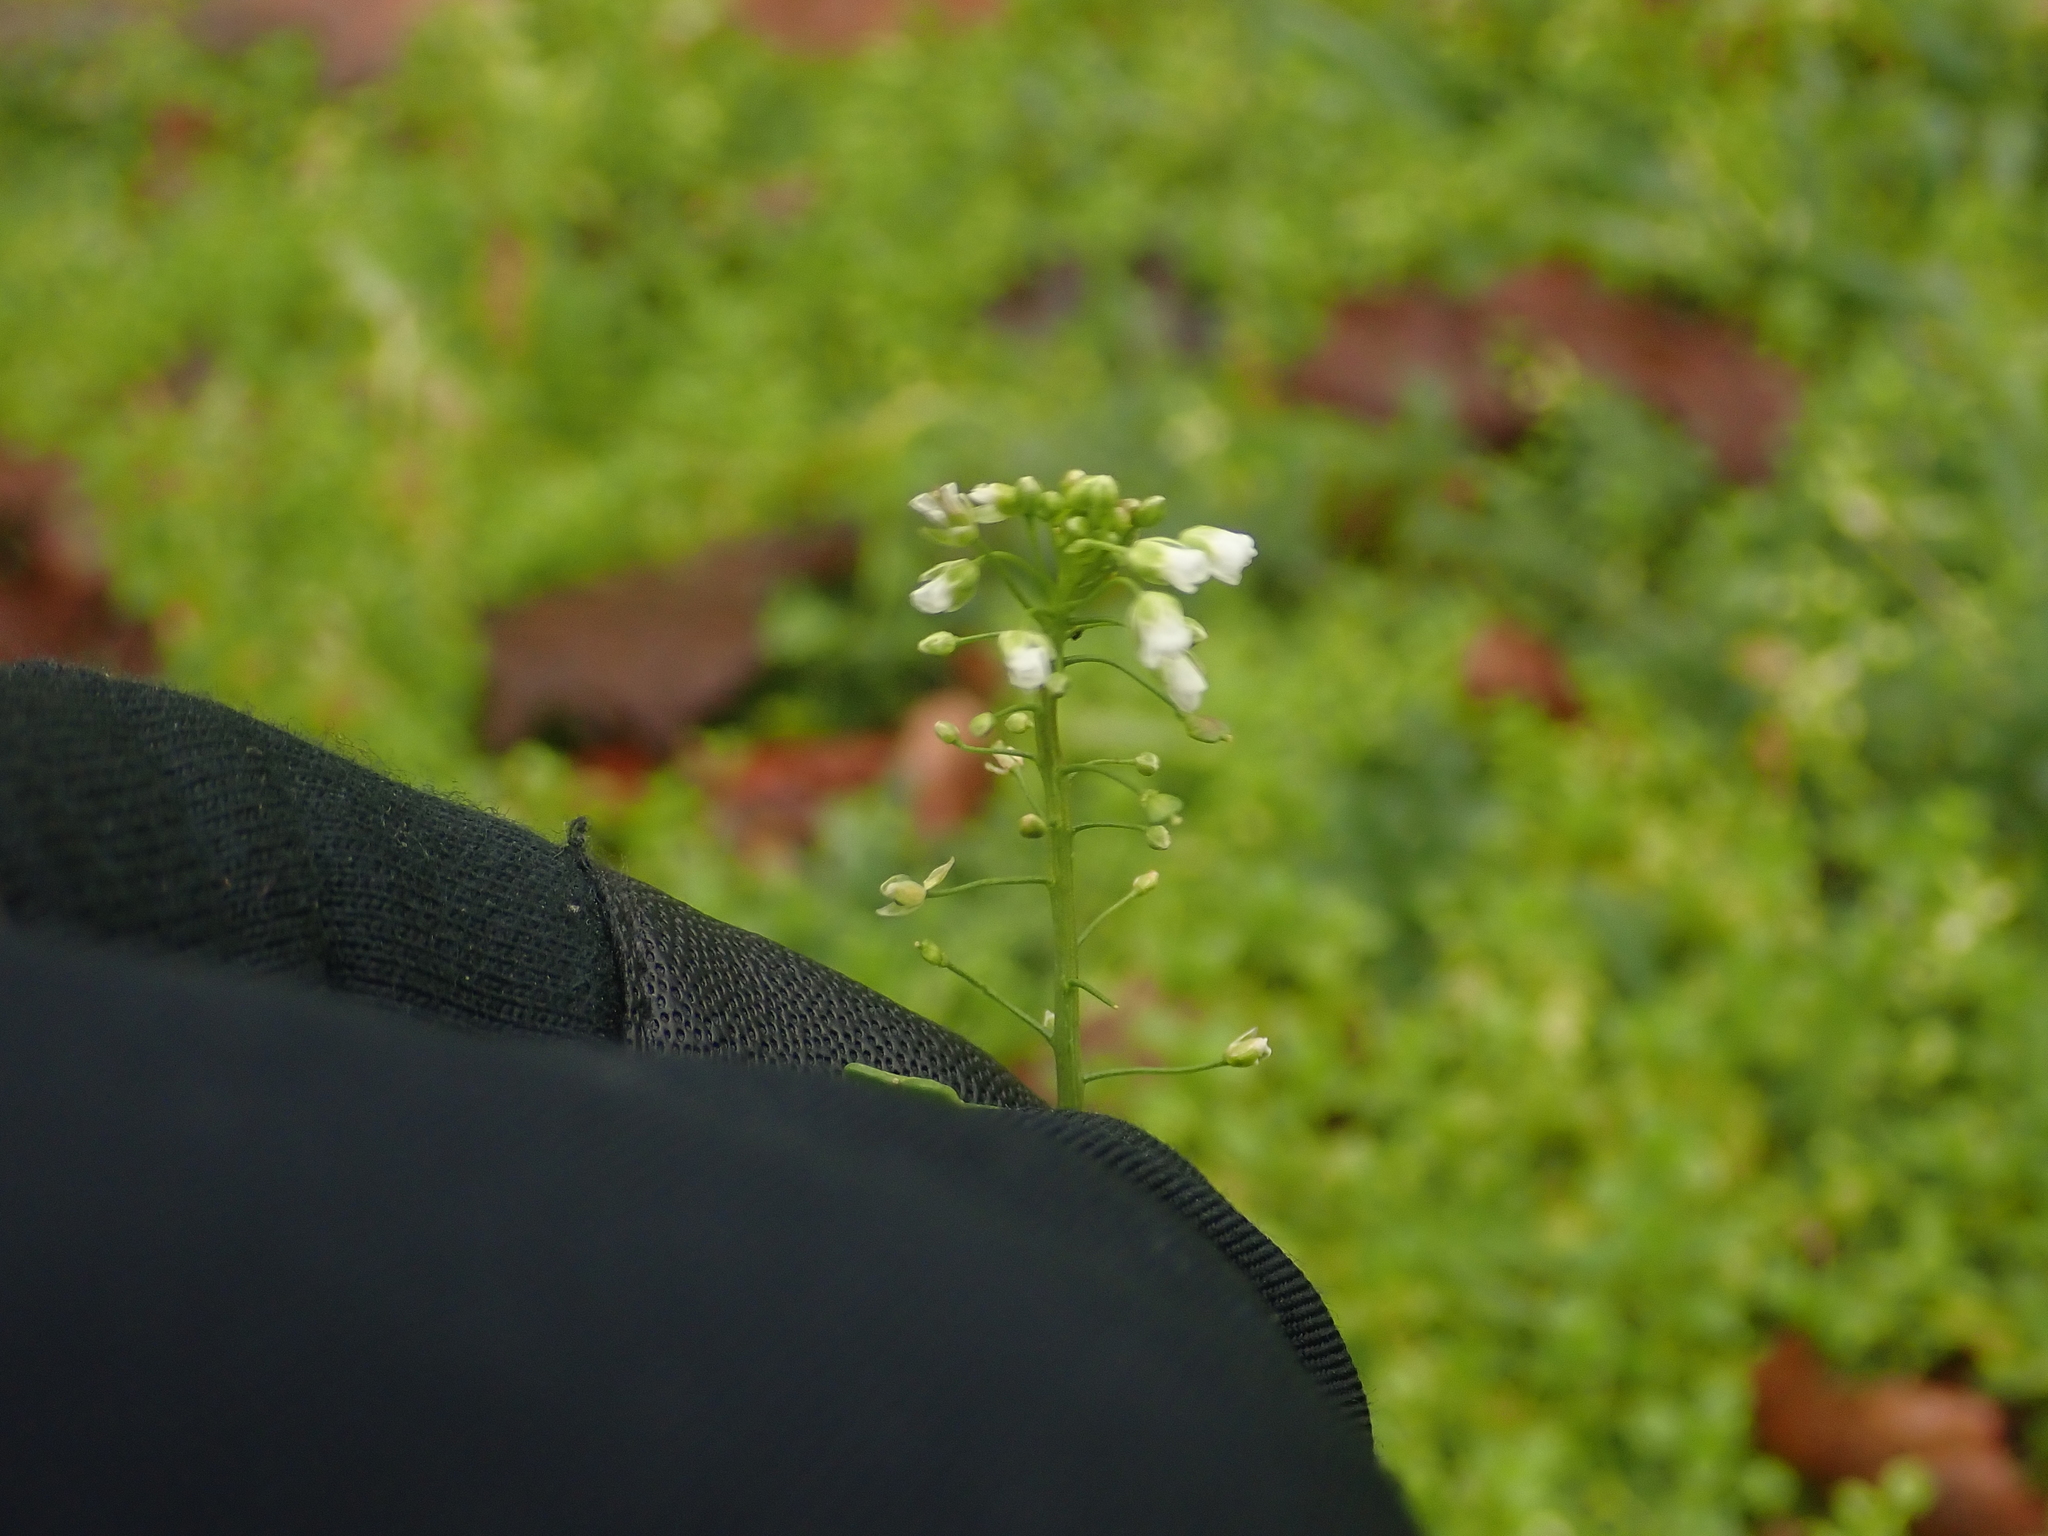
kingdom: Plantae
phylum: Tracheophyta
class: Magnoliopsida
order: Brassicales
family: Brassicaceae
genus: Capsella
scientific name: Capsella bursa-pastoris
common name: Shepherd's purse
